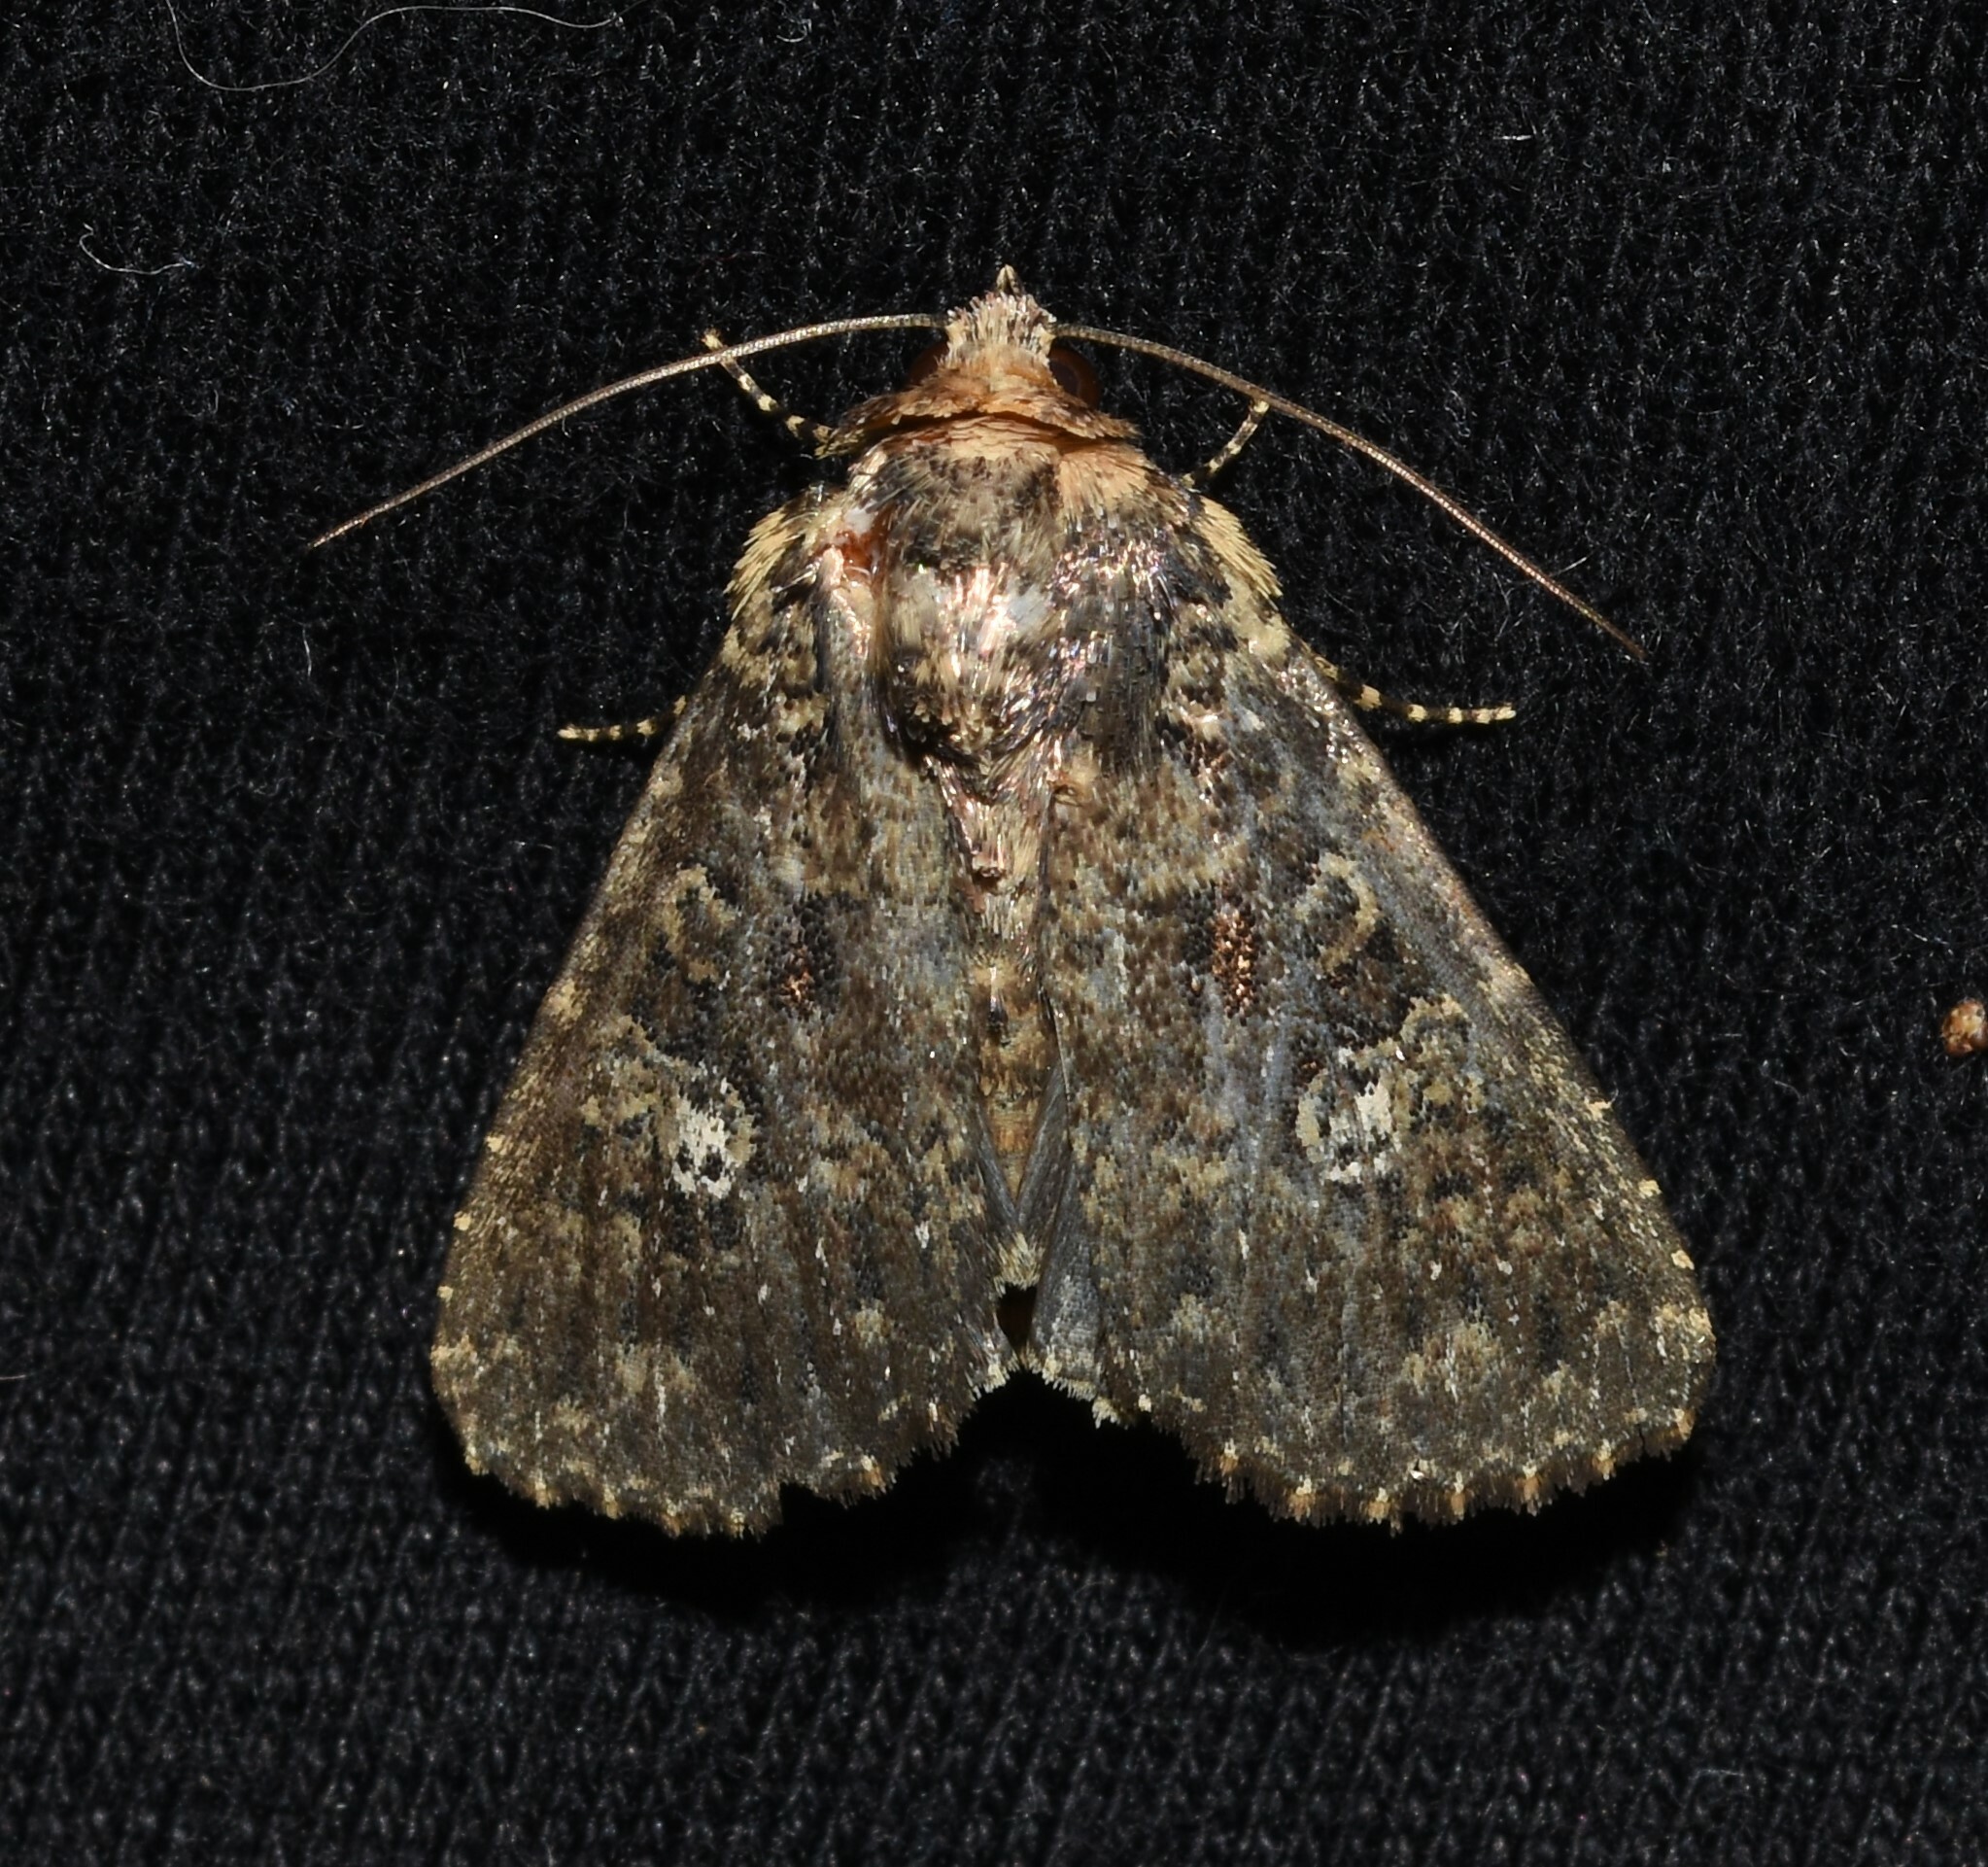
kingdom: Animalia
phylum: Arthropoda
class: Insecta
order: Lepidoptera
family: Noctuidae
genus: Condica
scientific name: Condica vecors
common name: Dusky groundling
